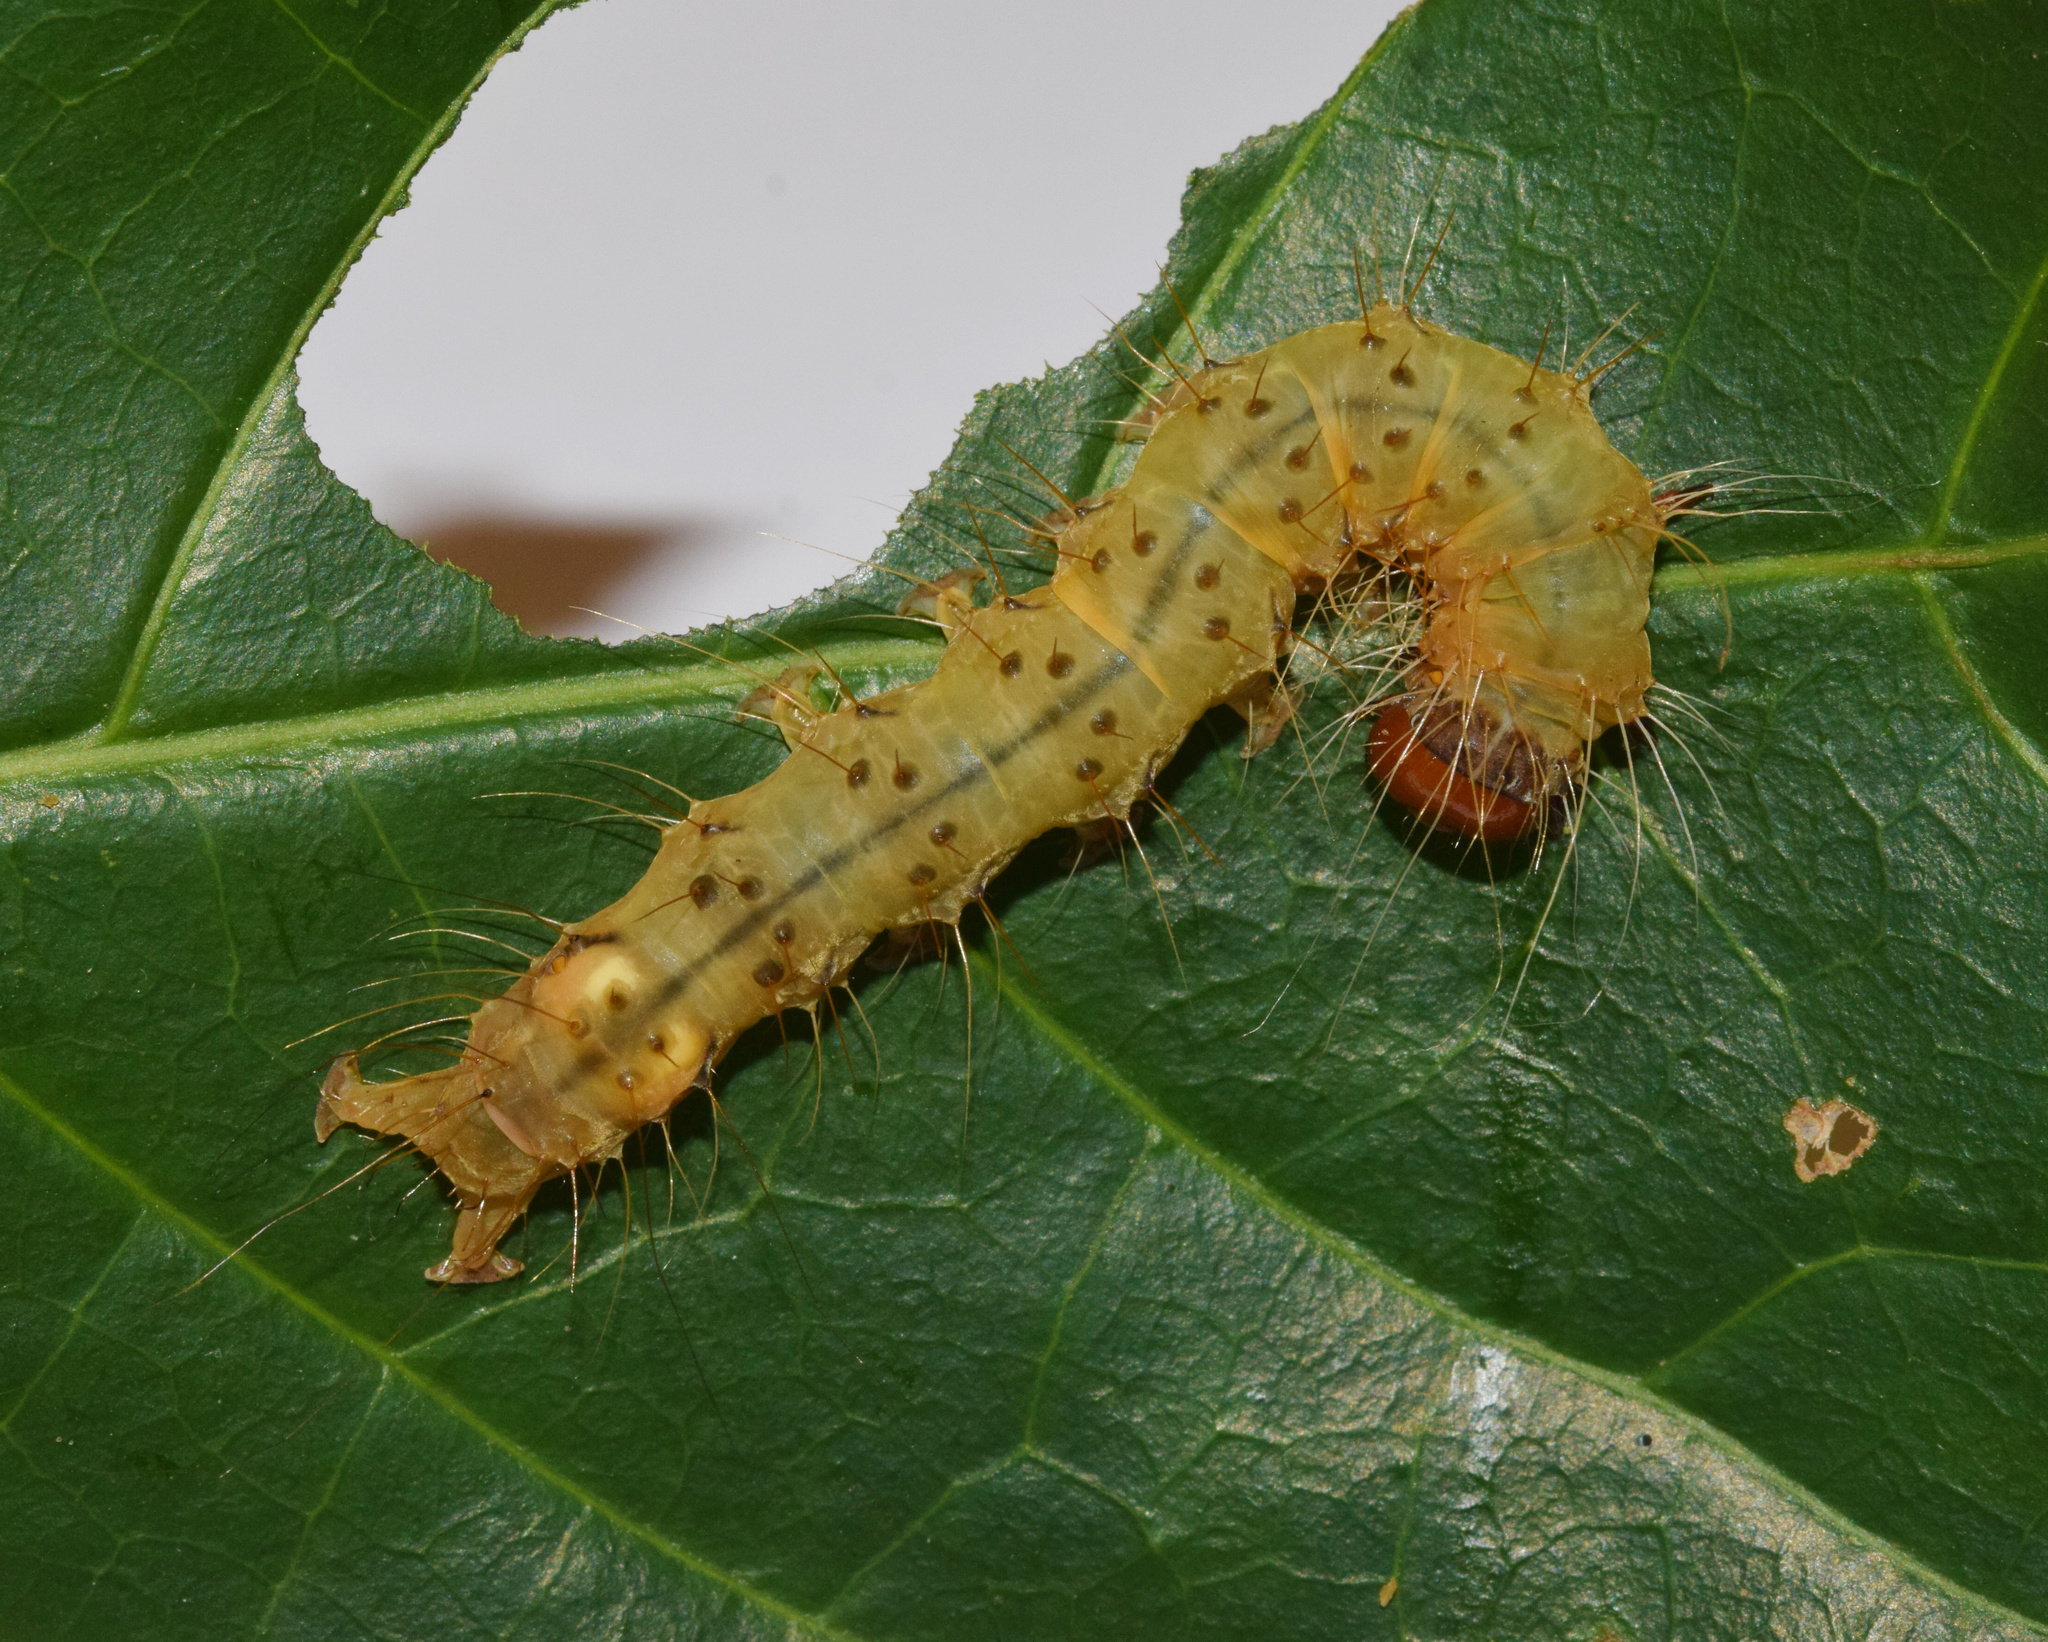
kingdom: Animalia
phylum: Arthropoda
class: Insecta
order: Lepidoptera
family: Erebidae
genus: Amerila
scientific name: Amerila bubo
